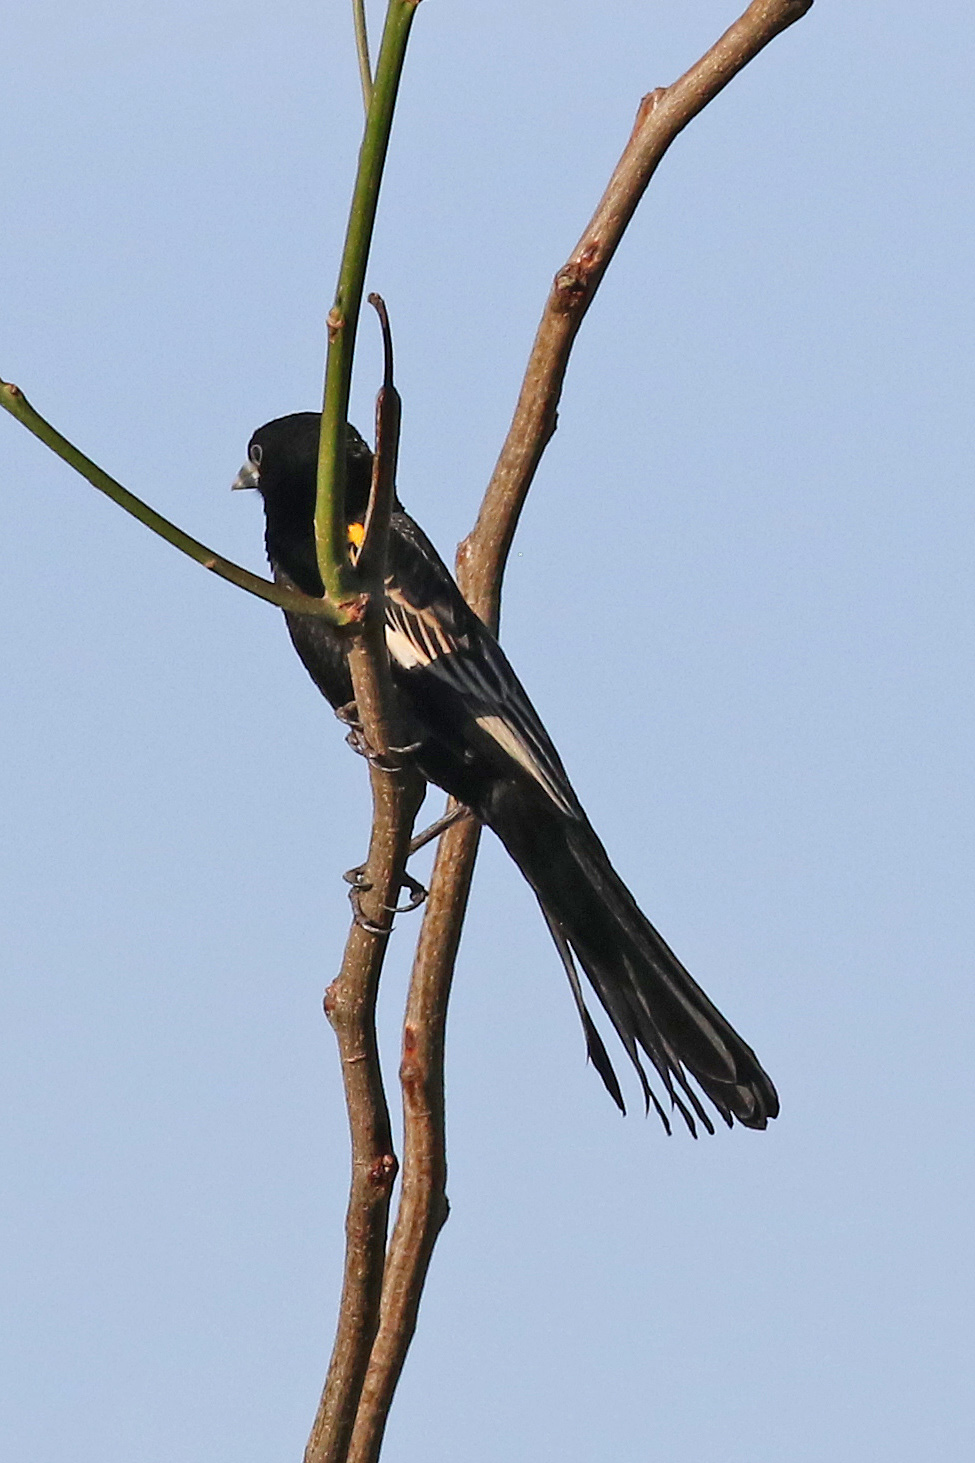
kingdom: Animalia
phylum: Chordata
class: Aves
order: Passeriformes
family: Ploceidae
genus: Euplectes
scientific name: Euplectes albonotatus
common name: White-winged widowbird
